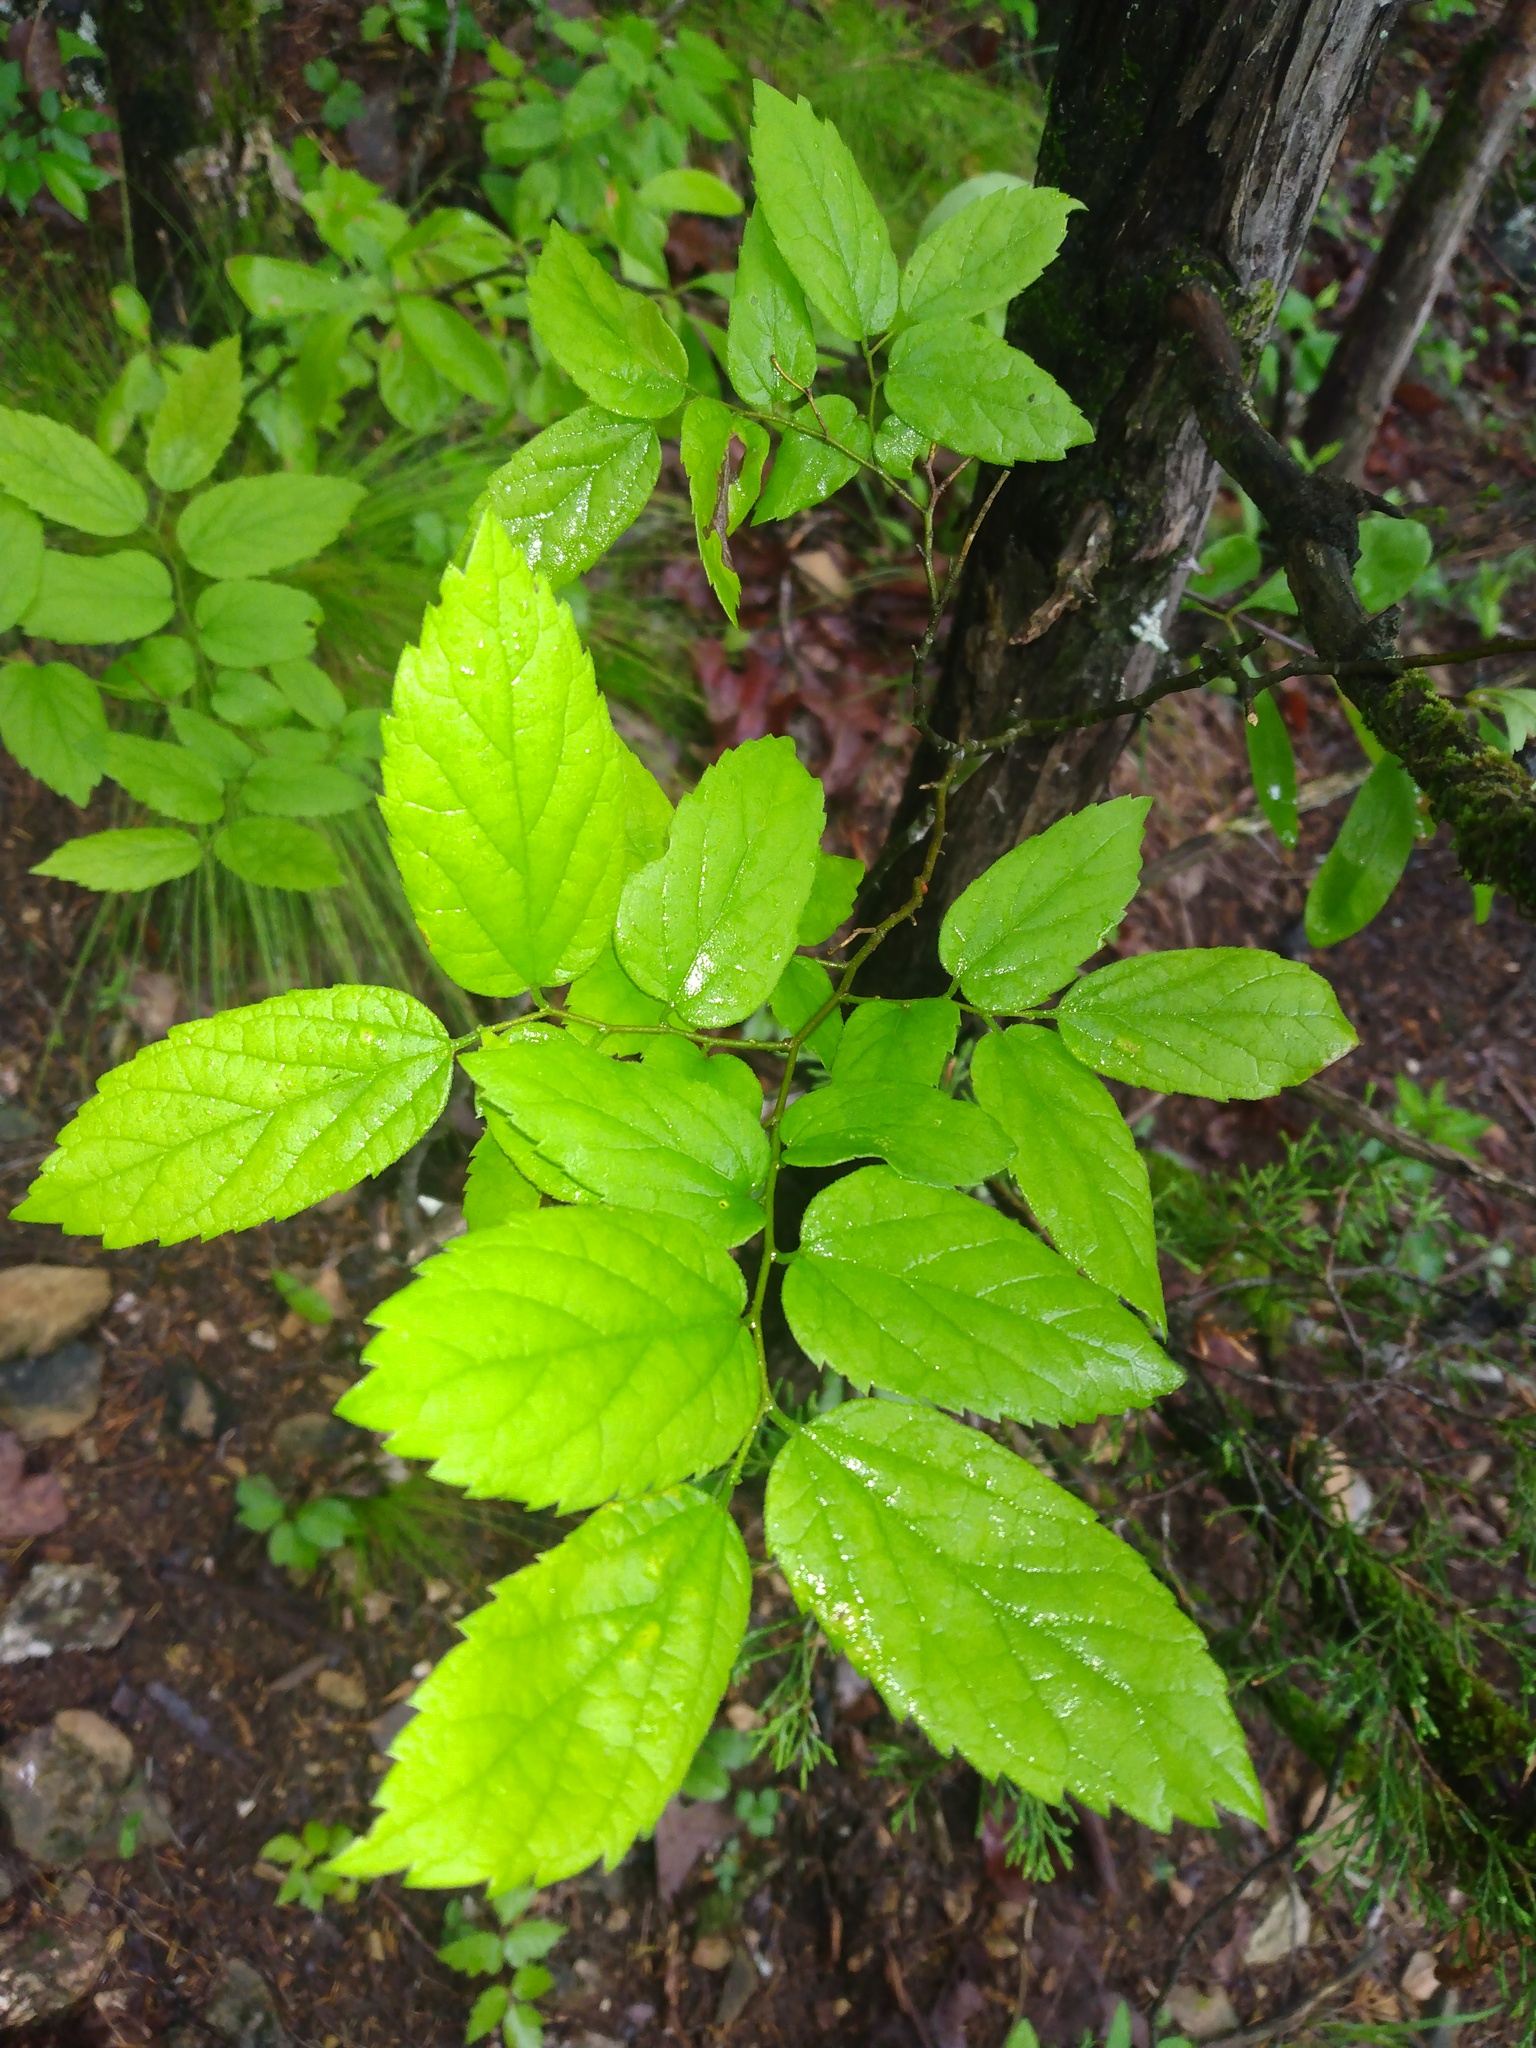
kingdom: Plantae
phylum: Tracheophyta
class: Magnoliopsida
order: Rosales
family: Cannabaceae
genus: Celtis
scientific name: Celtis laevigata
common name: Sugarberry
